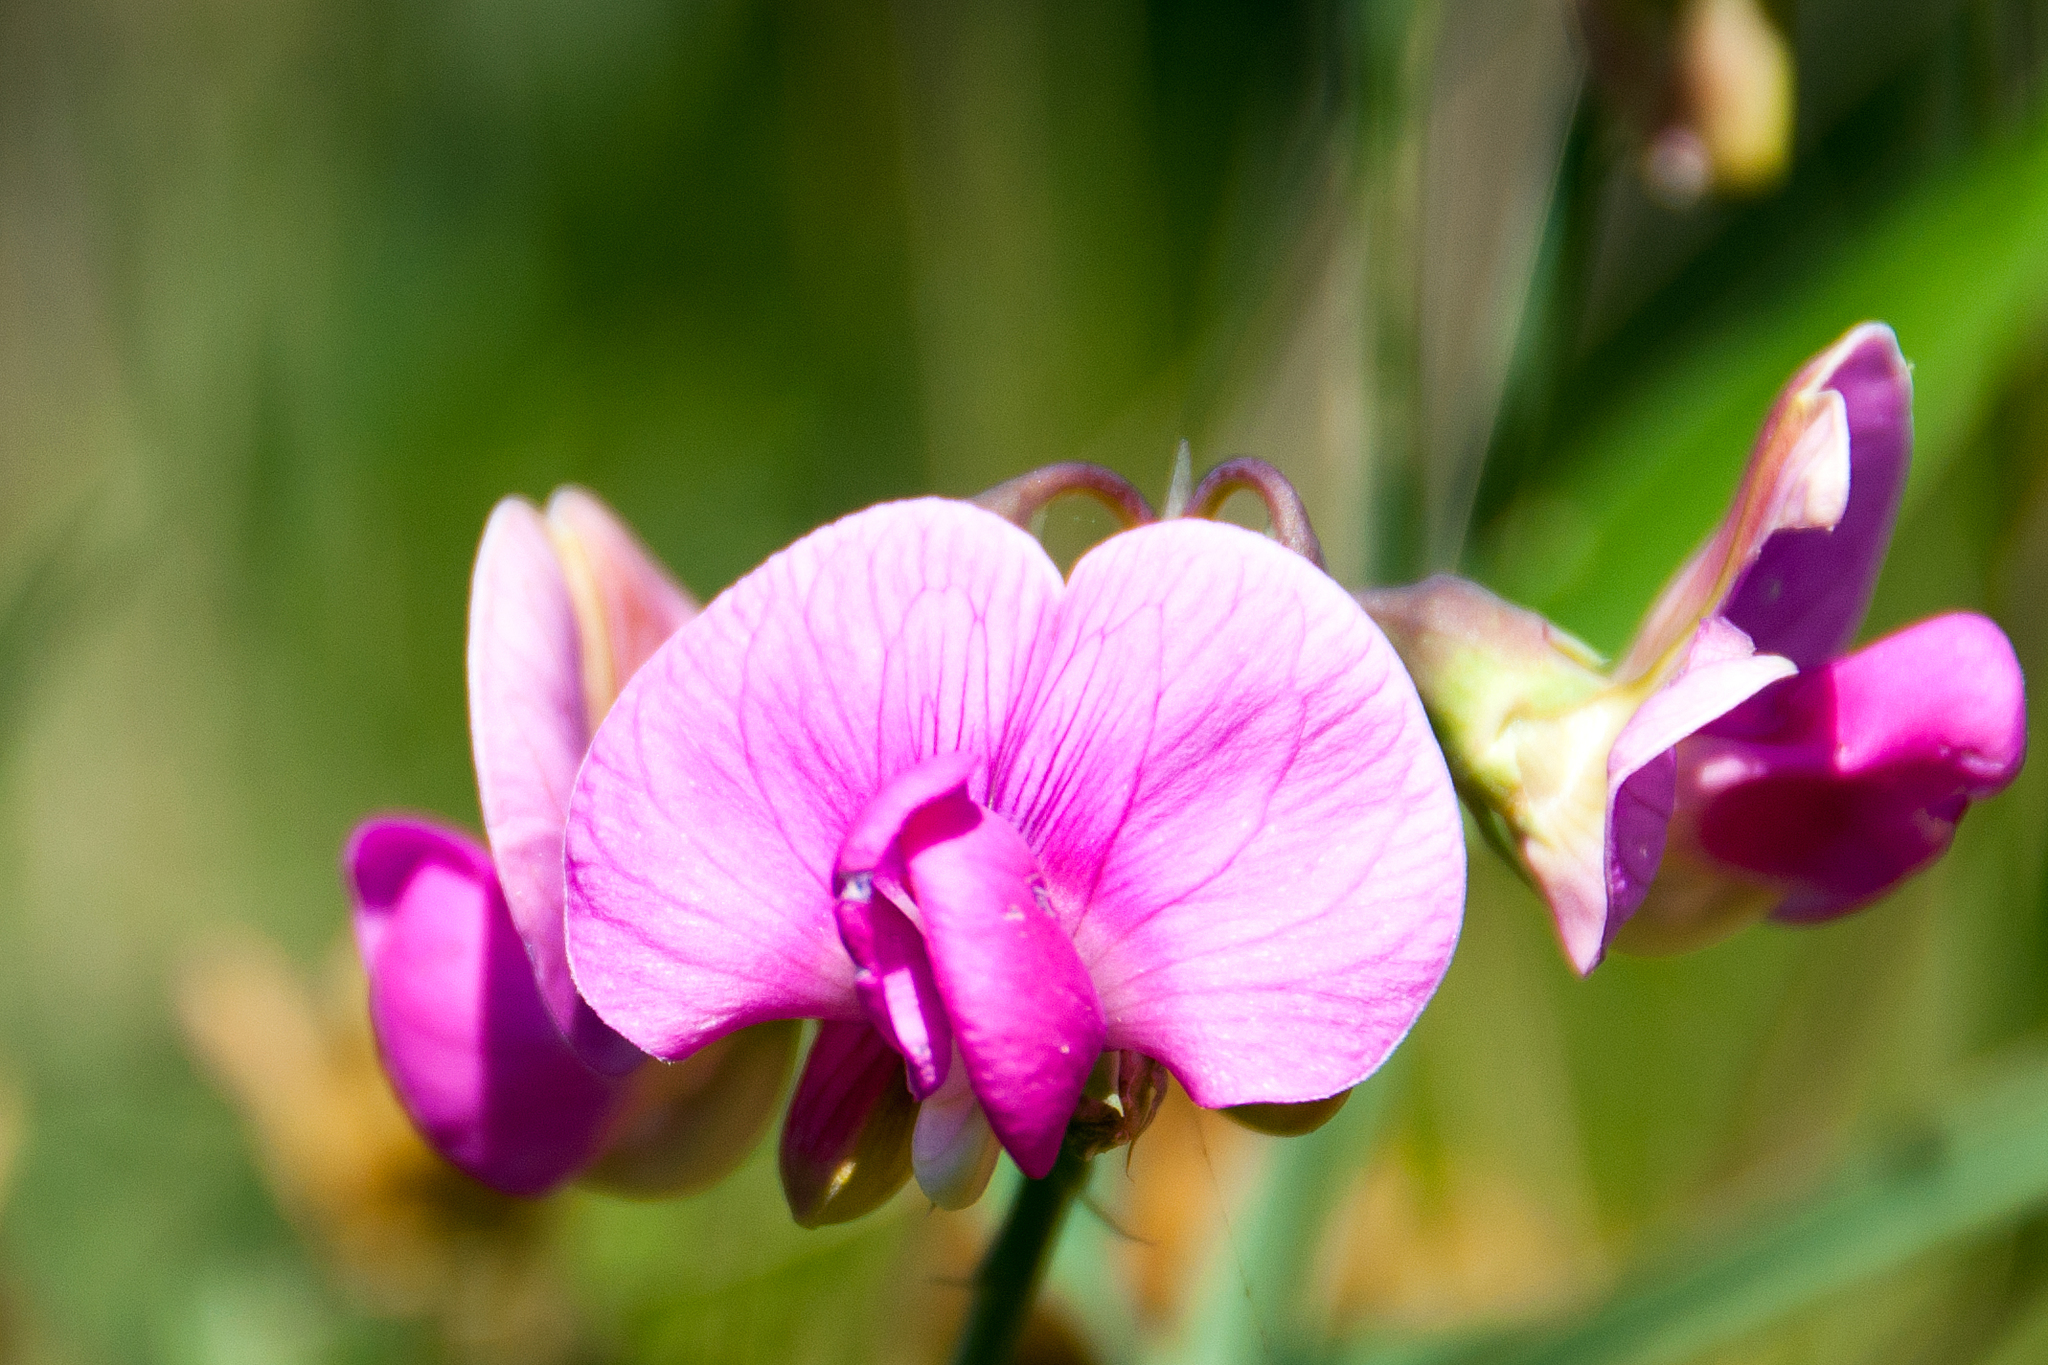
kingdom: Plantae
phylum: Tracheophyta
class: Magnoliopsida
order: Fabales
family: Fabaceae
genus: Lathyrus
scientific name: Lathyrus latifolius
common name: Perennial pea
